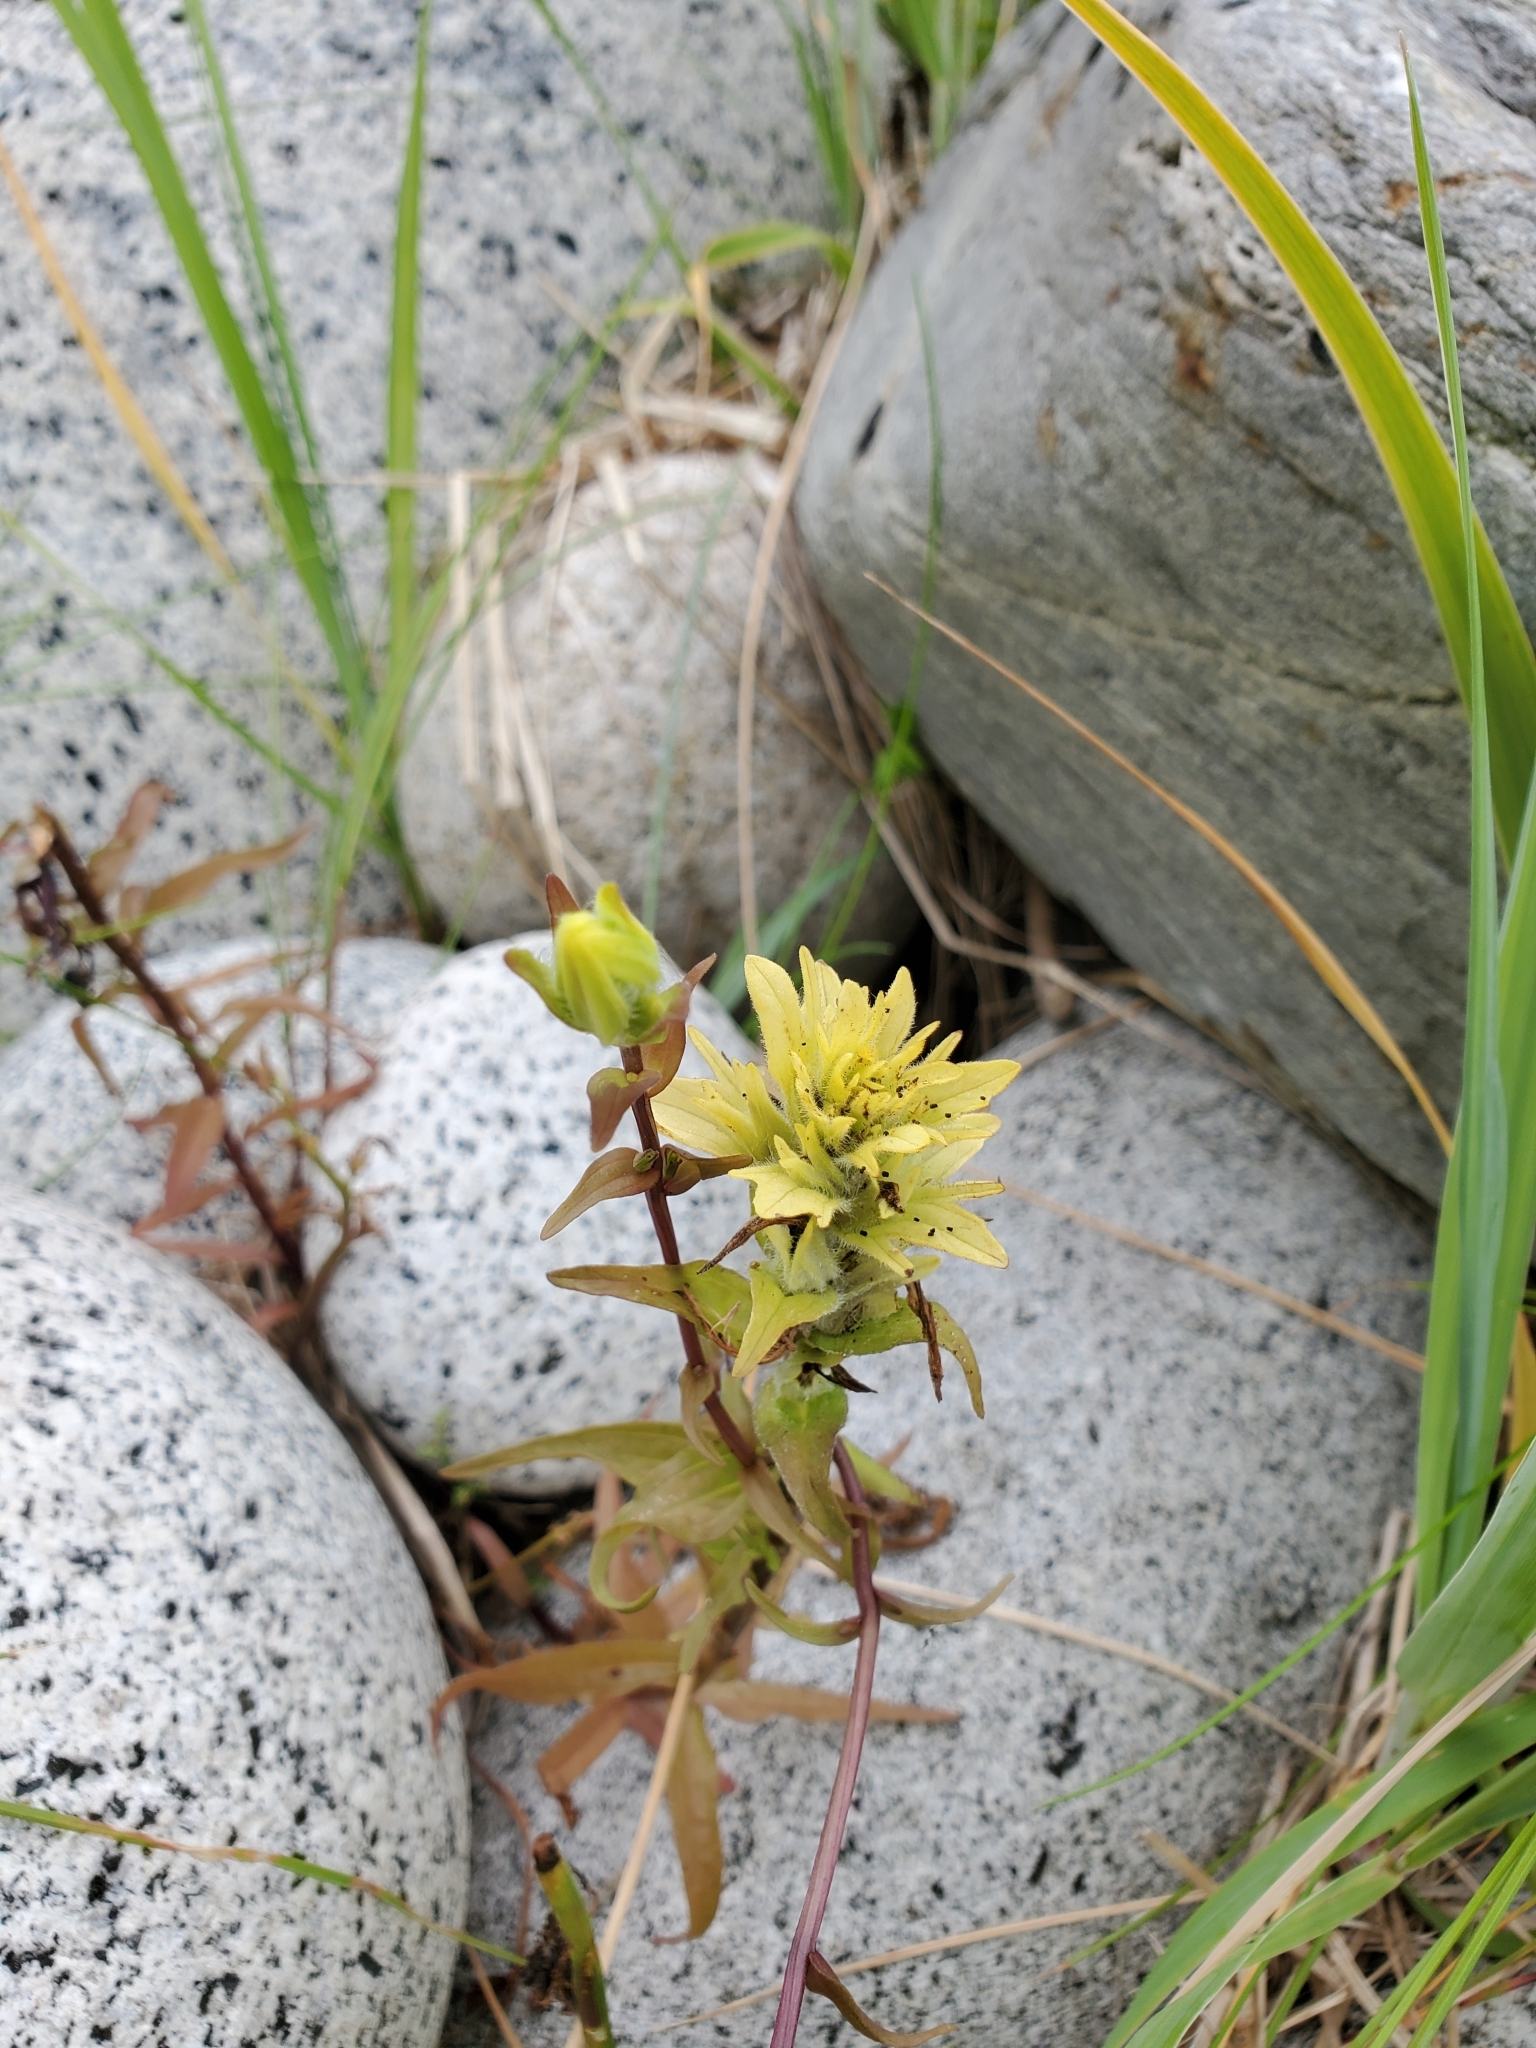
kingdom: Plantae
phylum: Tracheophyta
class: Magnoliopsida
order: Lamiales
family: Orobanchaceae
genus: Castilleja
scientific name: Castilleja unalaschcensis
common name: Unalaska paintbrush
